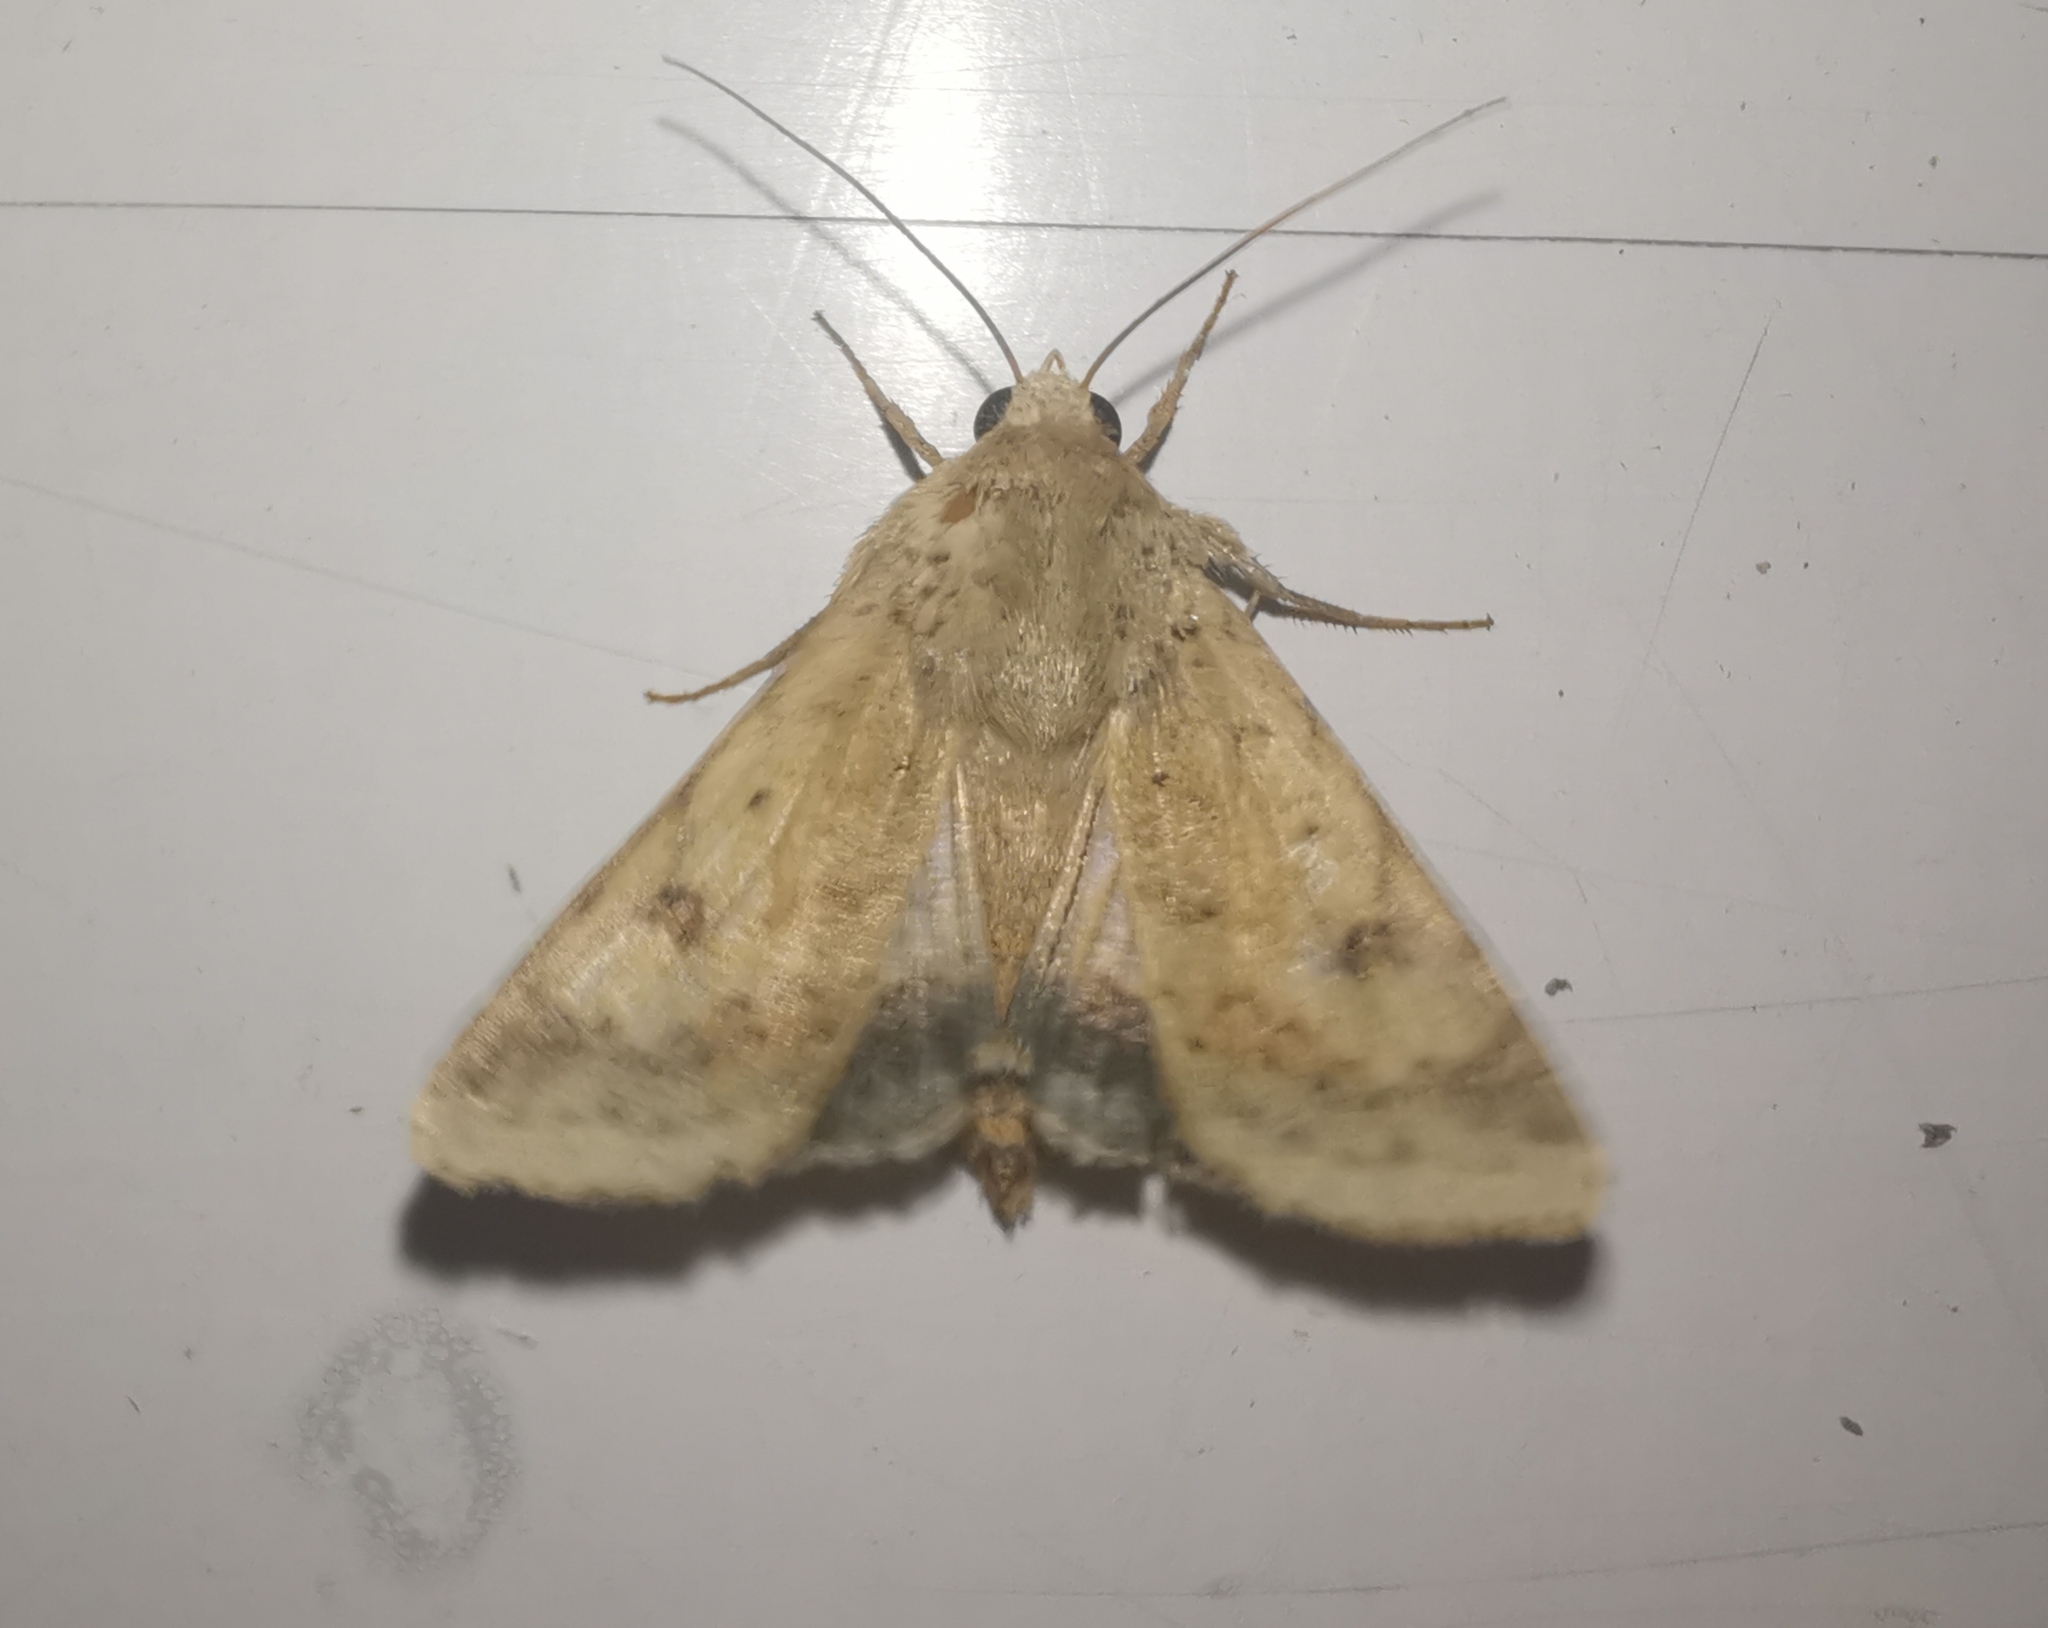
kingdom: Animalia
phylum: Arthropoda
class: Insecta
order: Lepidoptera
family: Noctuidae
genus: Helicoverpa
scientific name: Helicoverpa armigera
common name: Cotton bollworm
